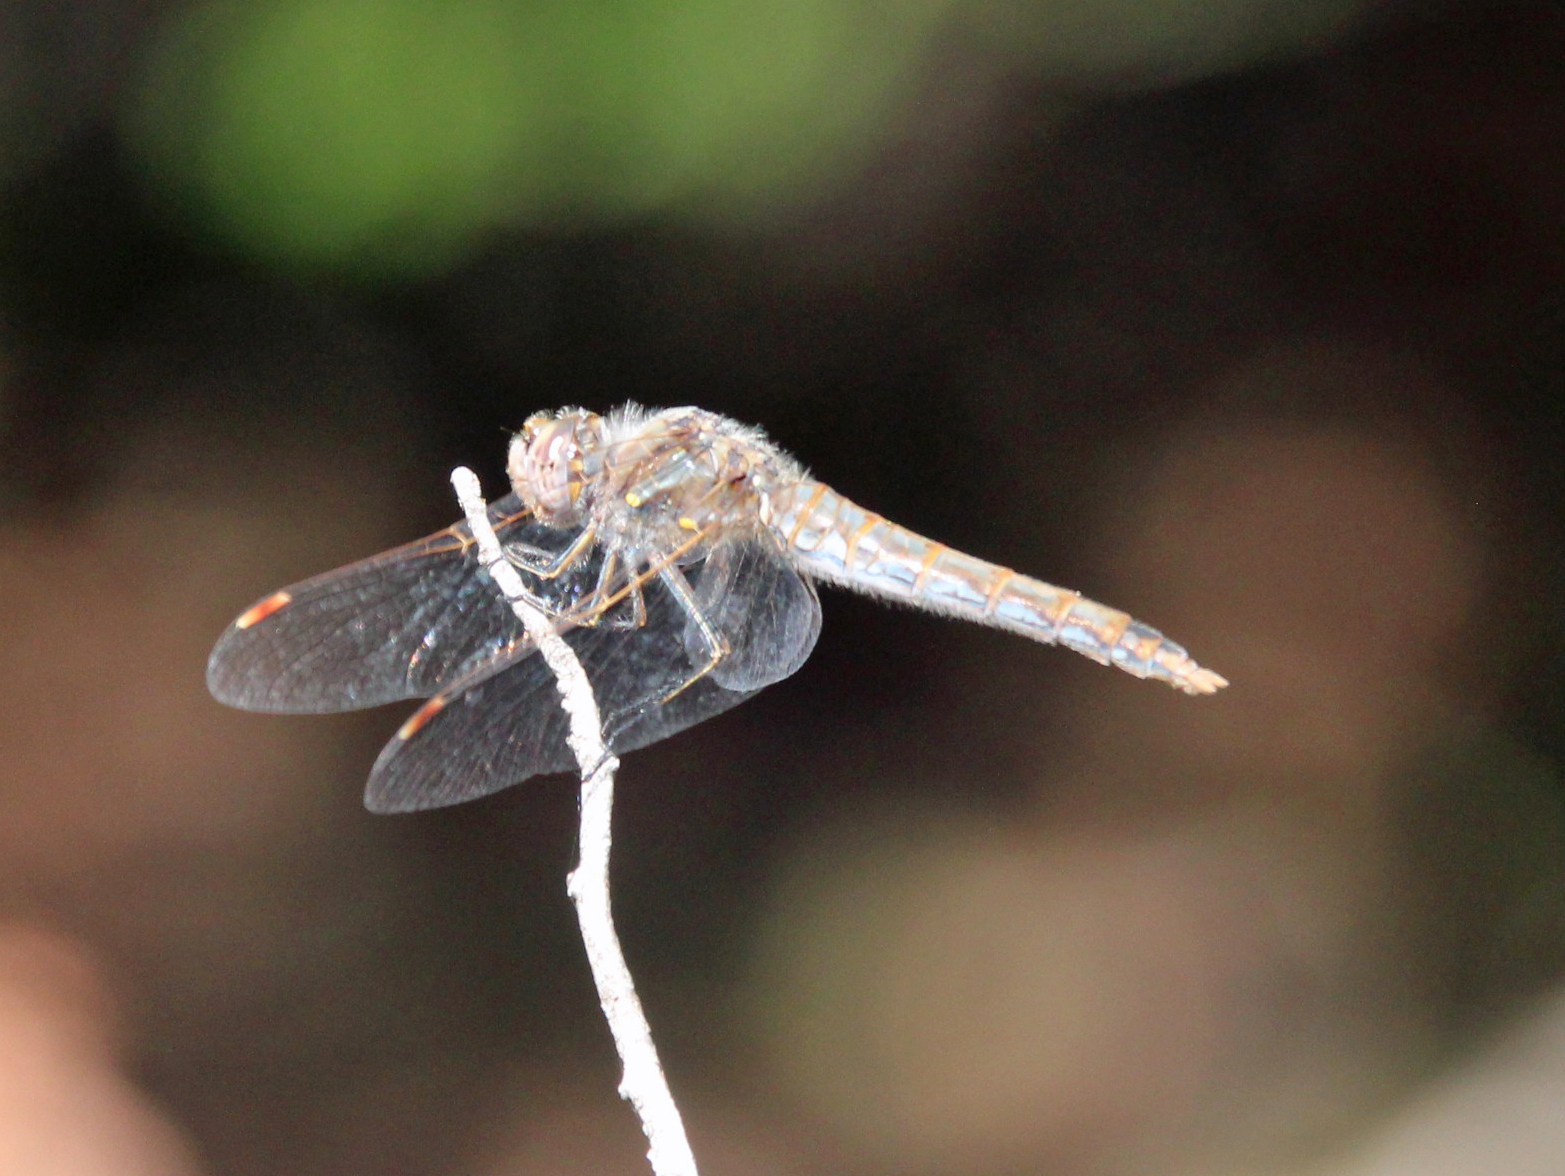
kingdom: Animalia
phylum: Arthropoda
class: Insecta
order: Odonata
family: Libellulidae
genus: Sympetrum
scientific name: Sympetrum corruptum
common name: Variegated meadowhawk
